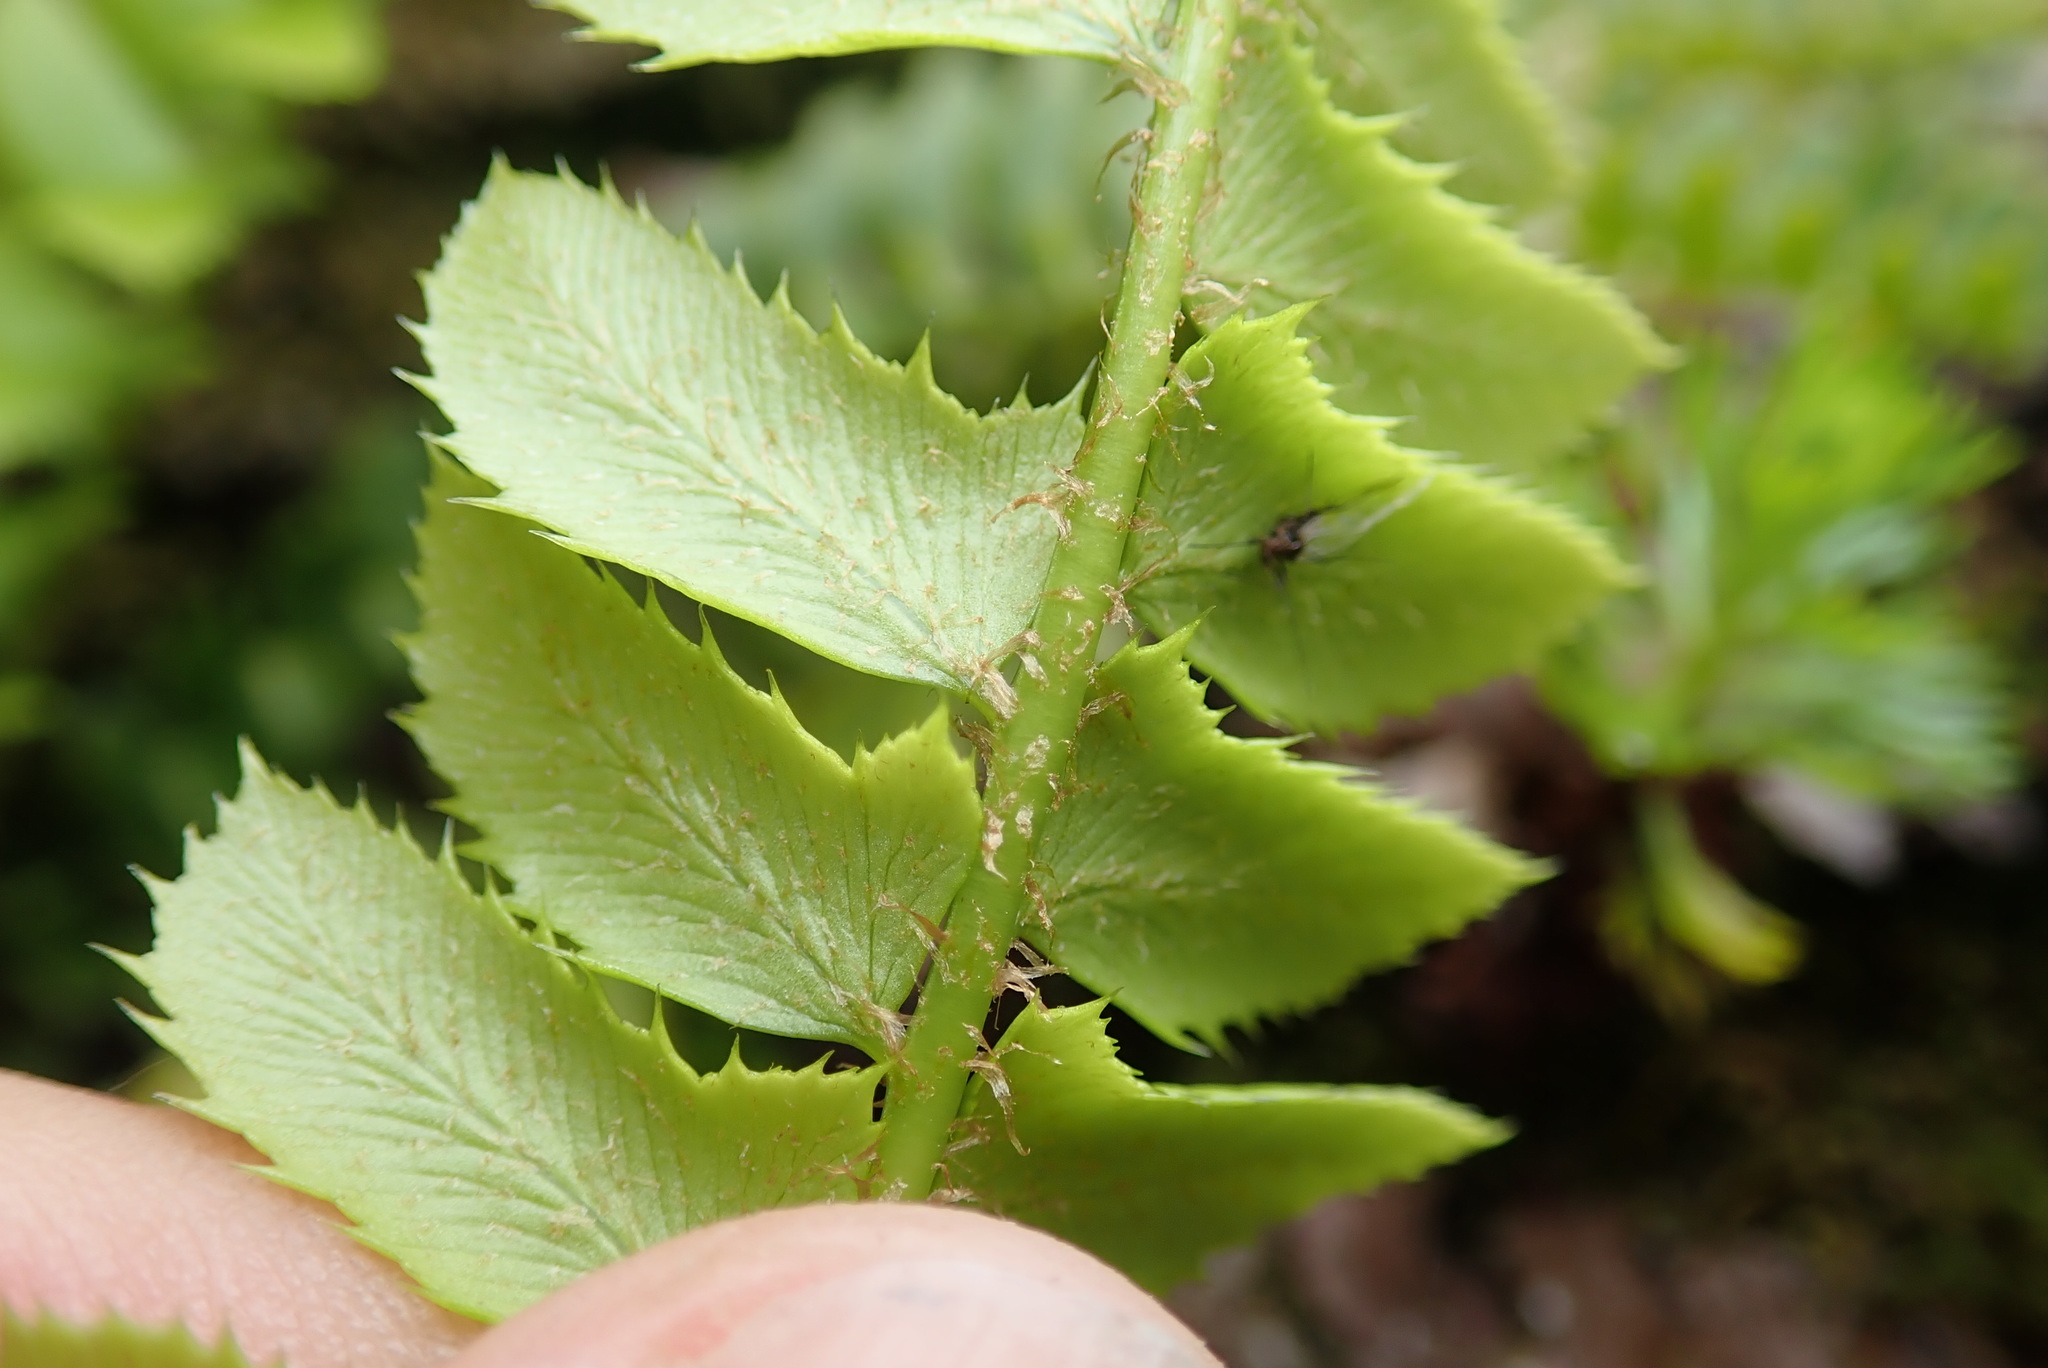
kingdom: Plantae
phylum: Tracheophyta
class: Polypodiopsida
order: Polypodiales
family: Dryopteridaceae
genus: Polystichum
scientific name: Polystichum lonchitis
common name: Holly fern
